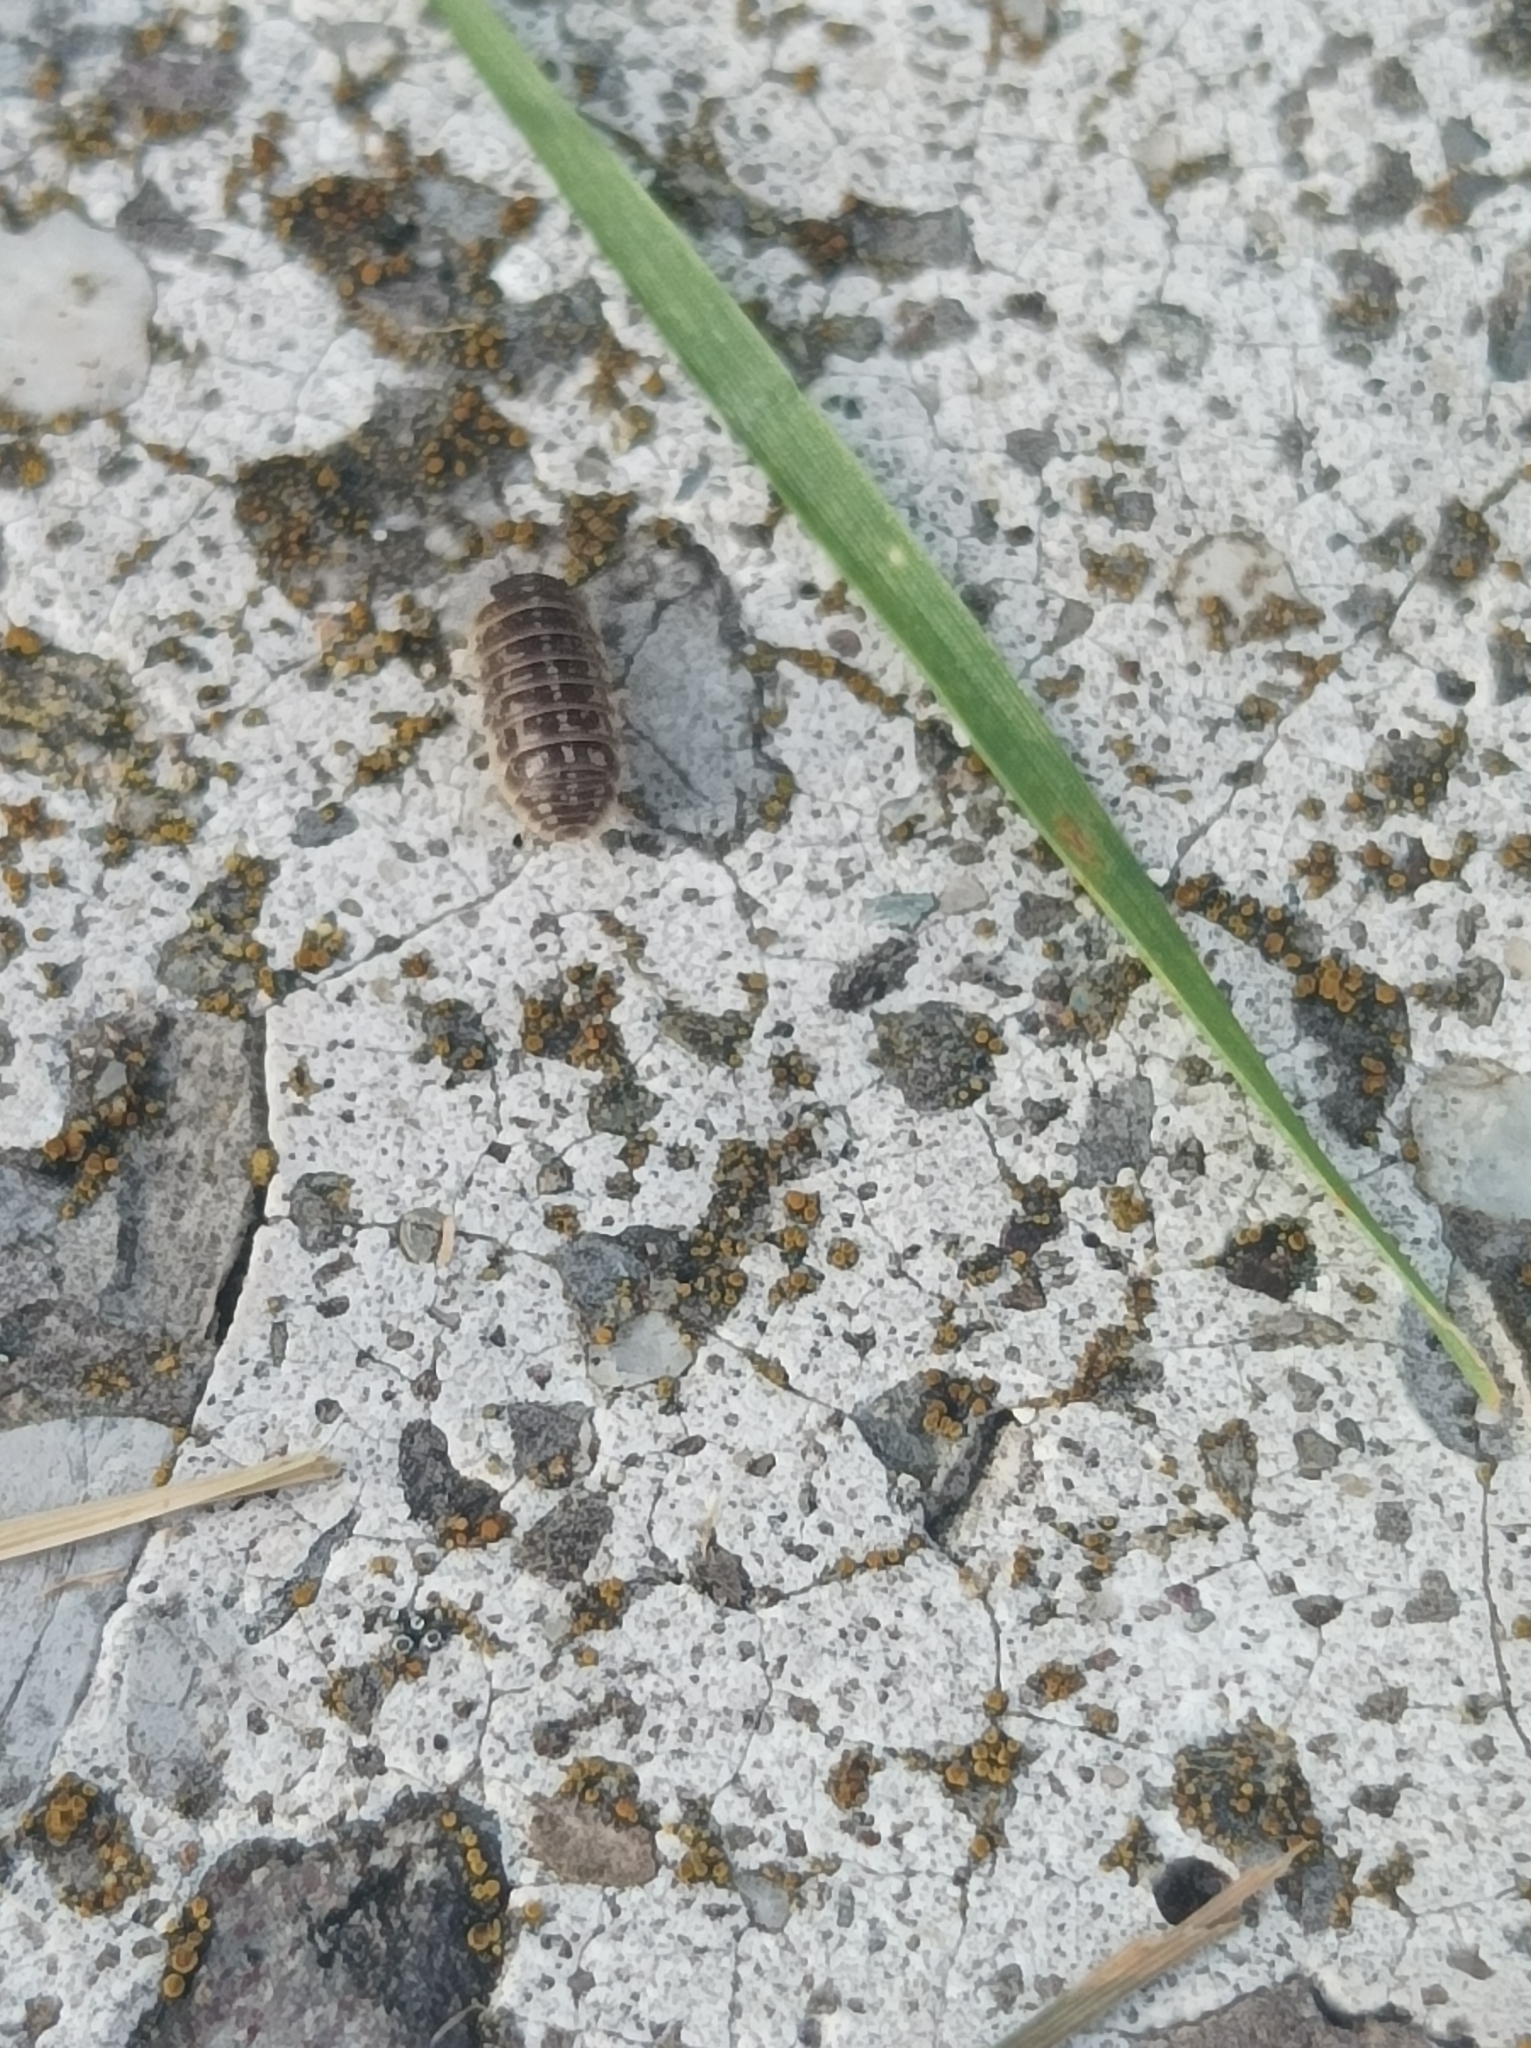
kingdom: Animalia
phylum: Arthropoda
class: Malacostraca
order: Isopoda
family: Armadillidiidae
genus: Armadillidium
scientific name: Armadillidium versicolor
